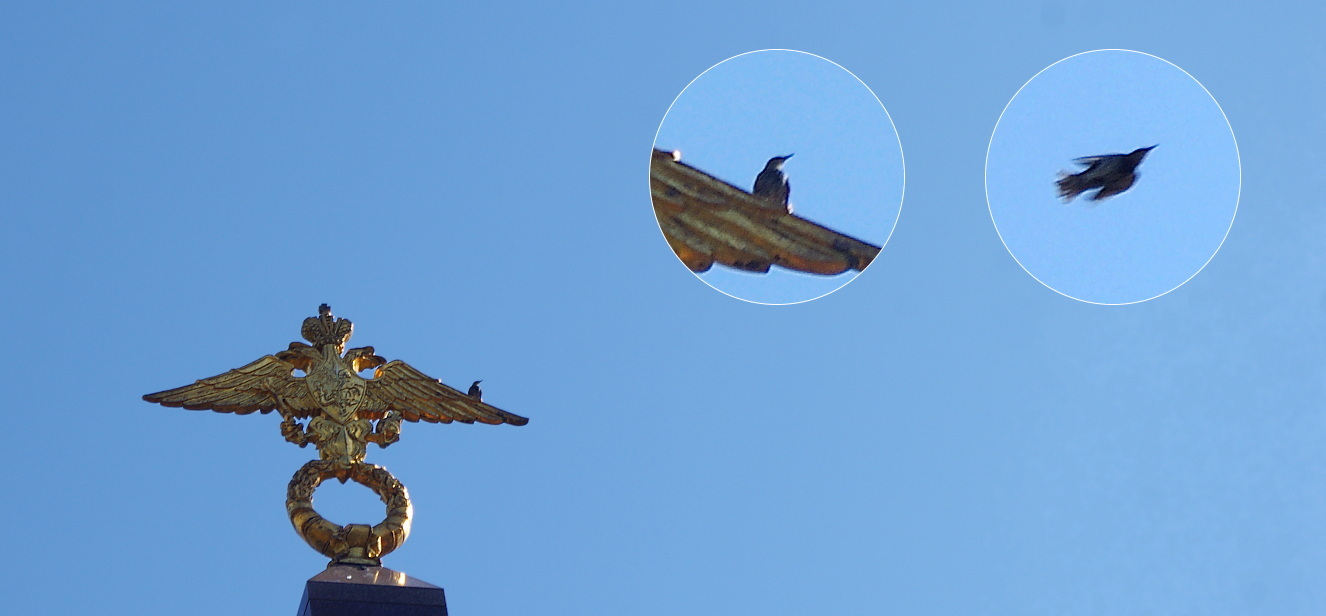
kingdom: Animalia
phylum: Chordata
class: Aves
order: Passeriformes
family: Sturnidae
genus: Sturnus
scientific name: Sturnus vulgaris
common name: Common starling
